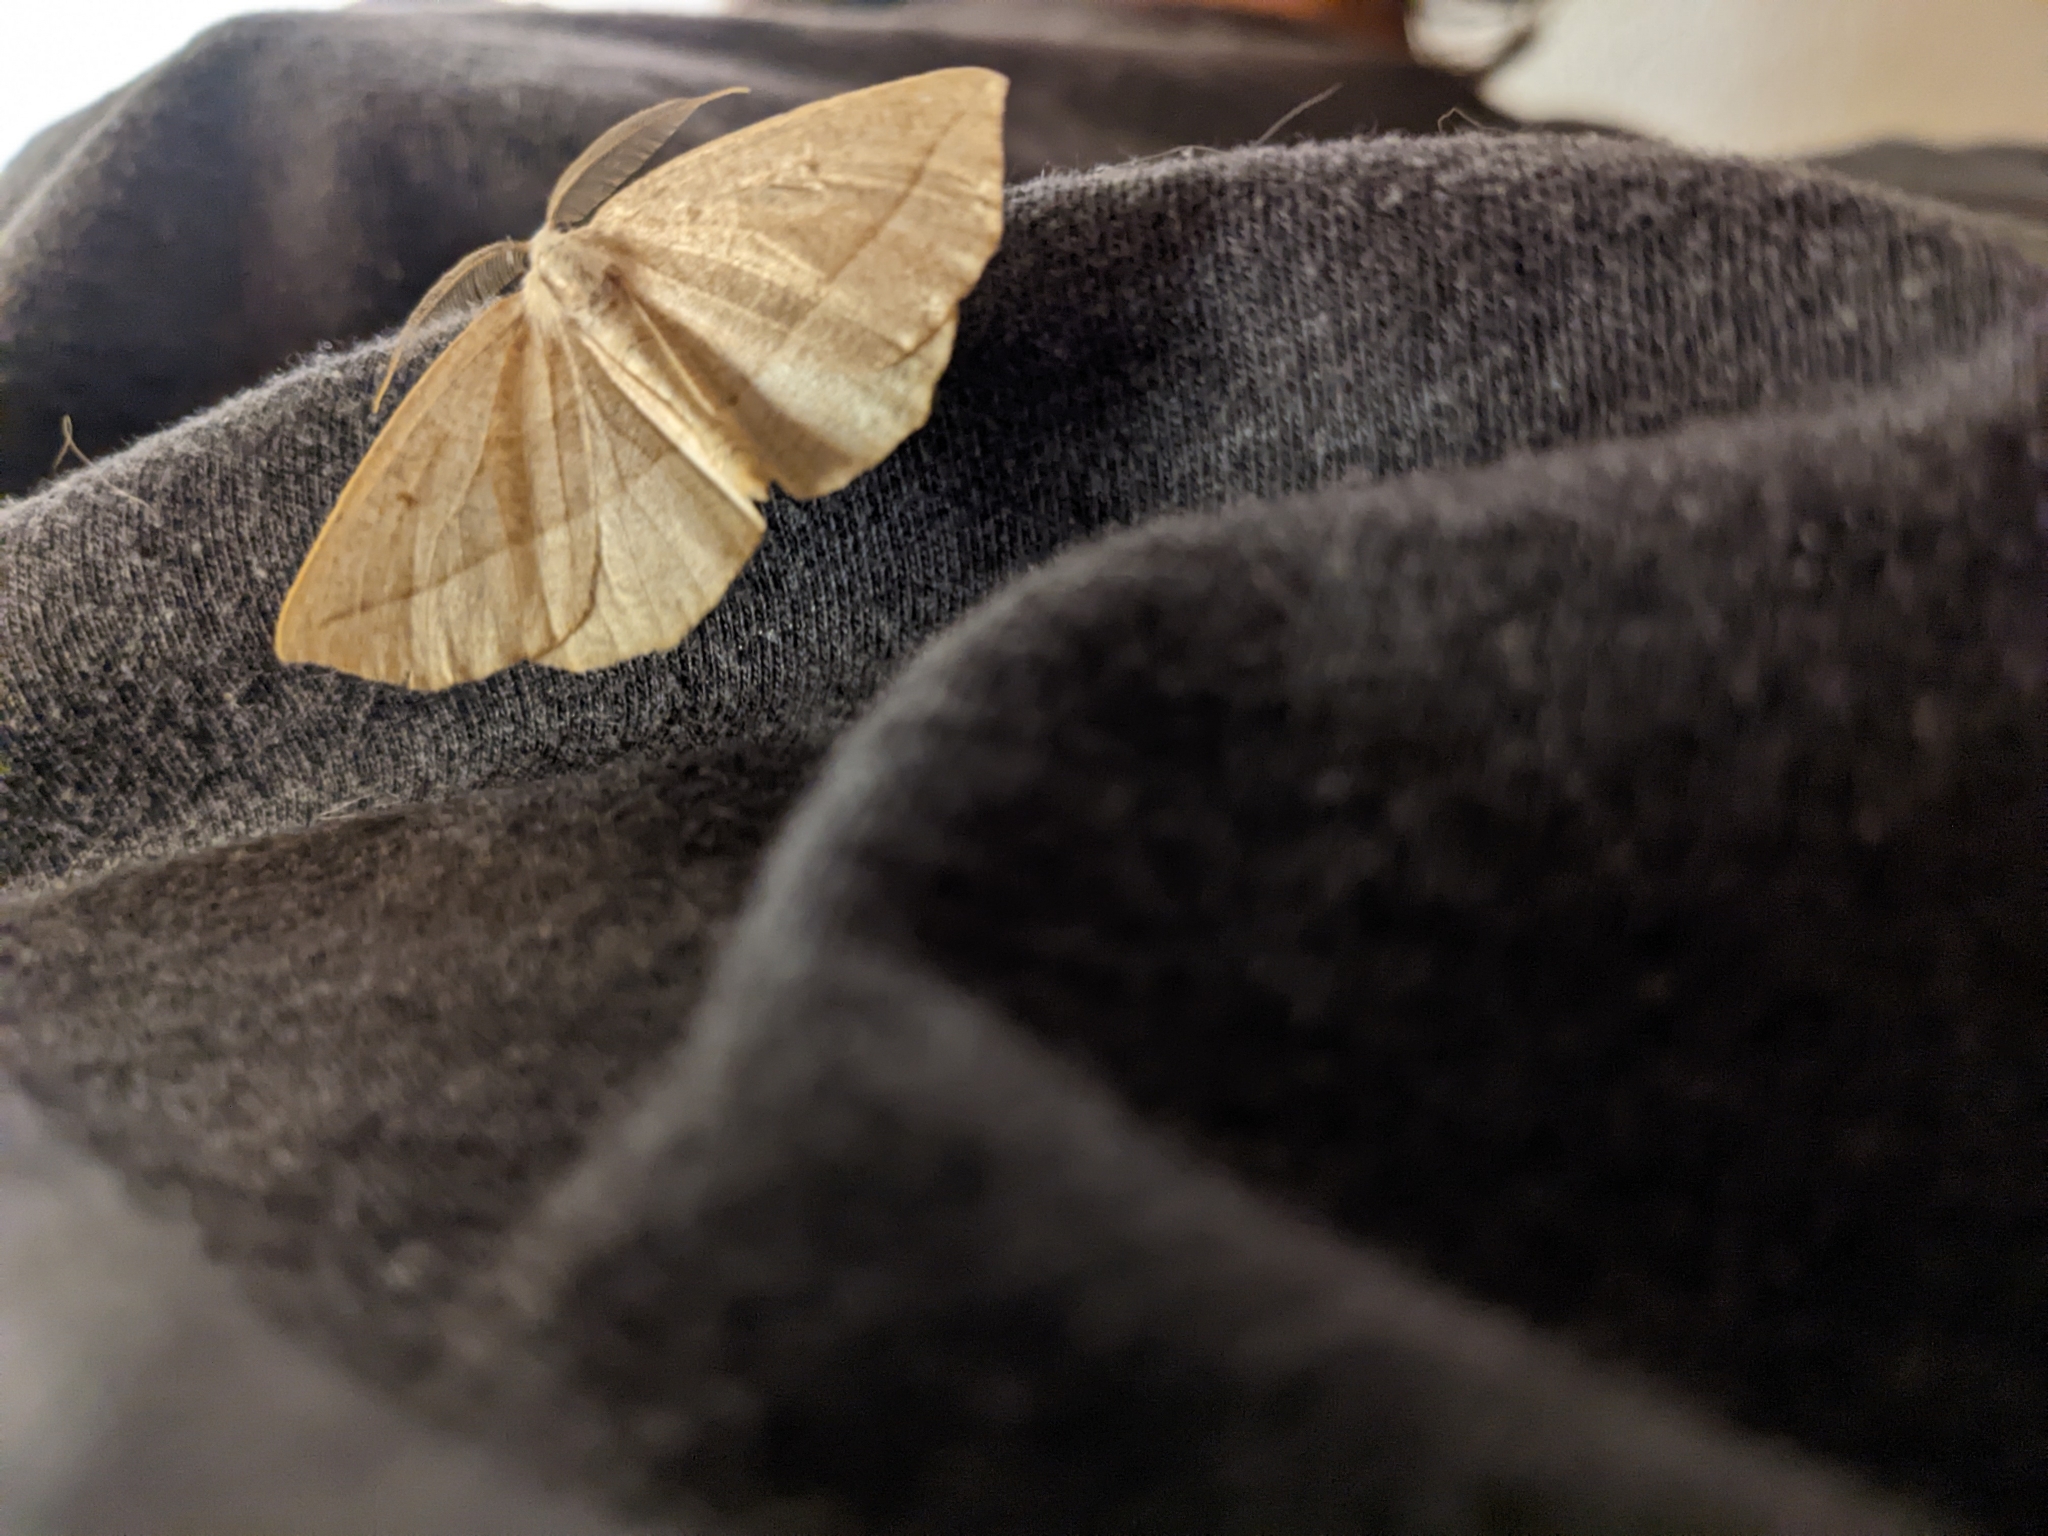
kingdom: Animalia
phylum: Arthropoda
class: Insecta
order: Lepidoptera
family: Geometridae
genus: Eusarca
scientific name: Eusarca confusaria
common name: Confused eusarca
